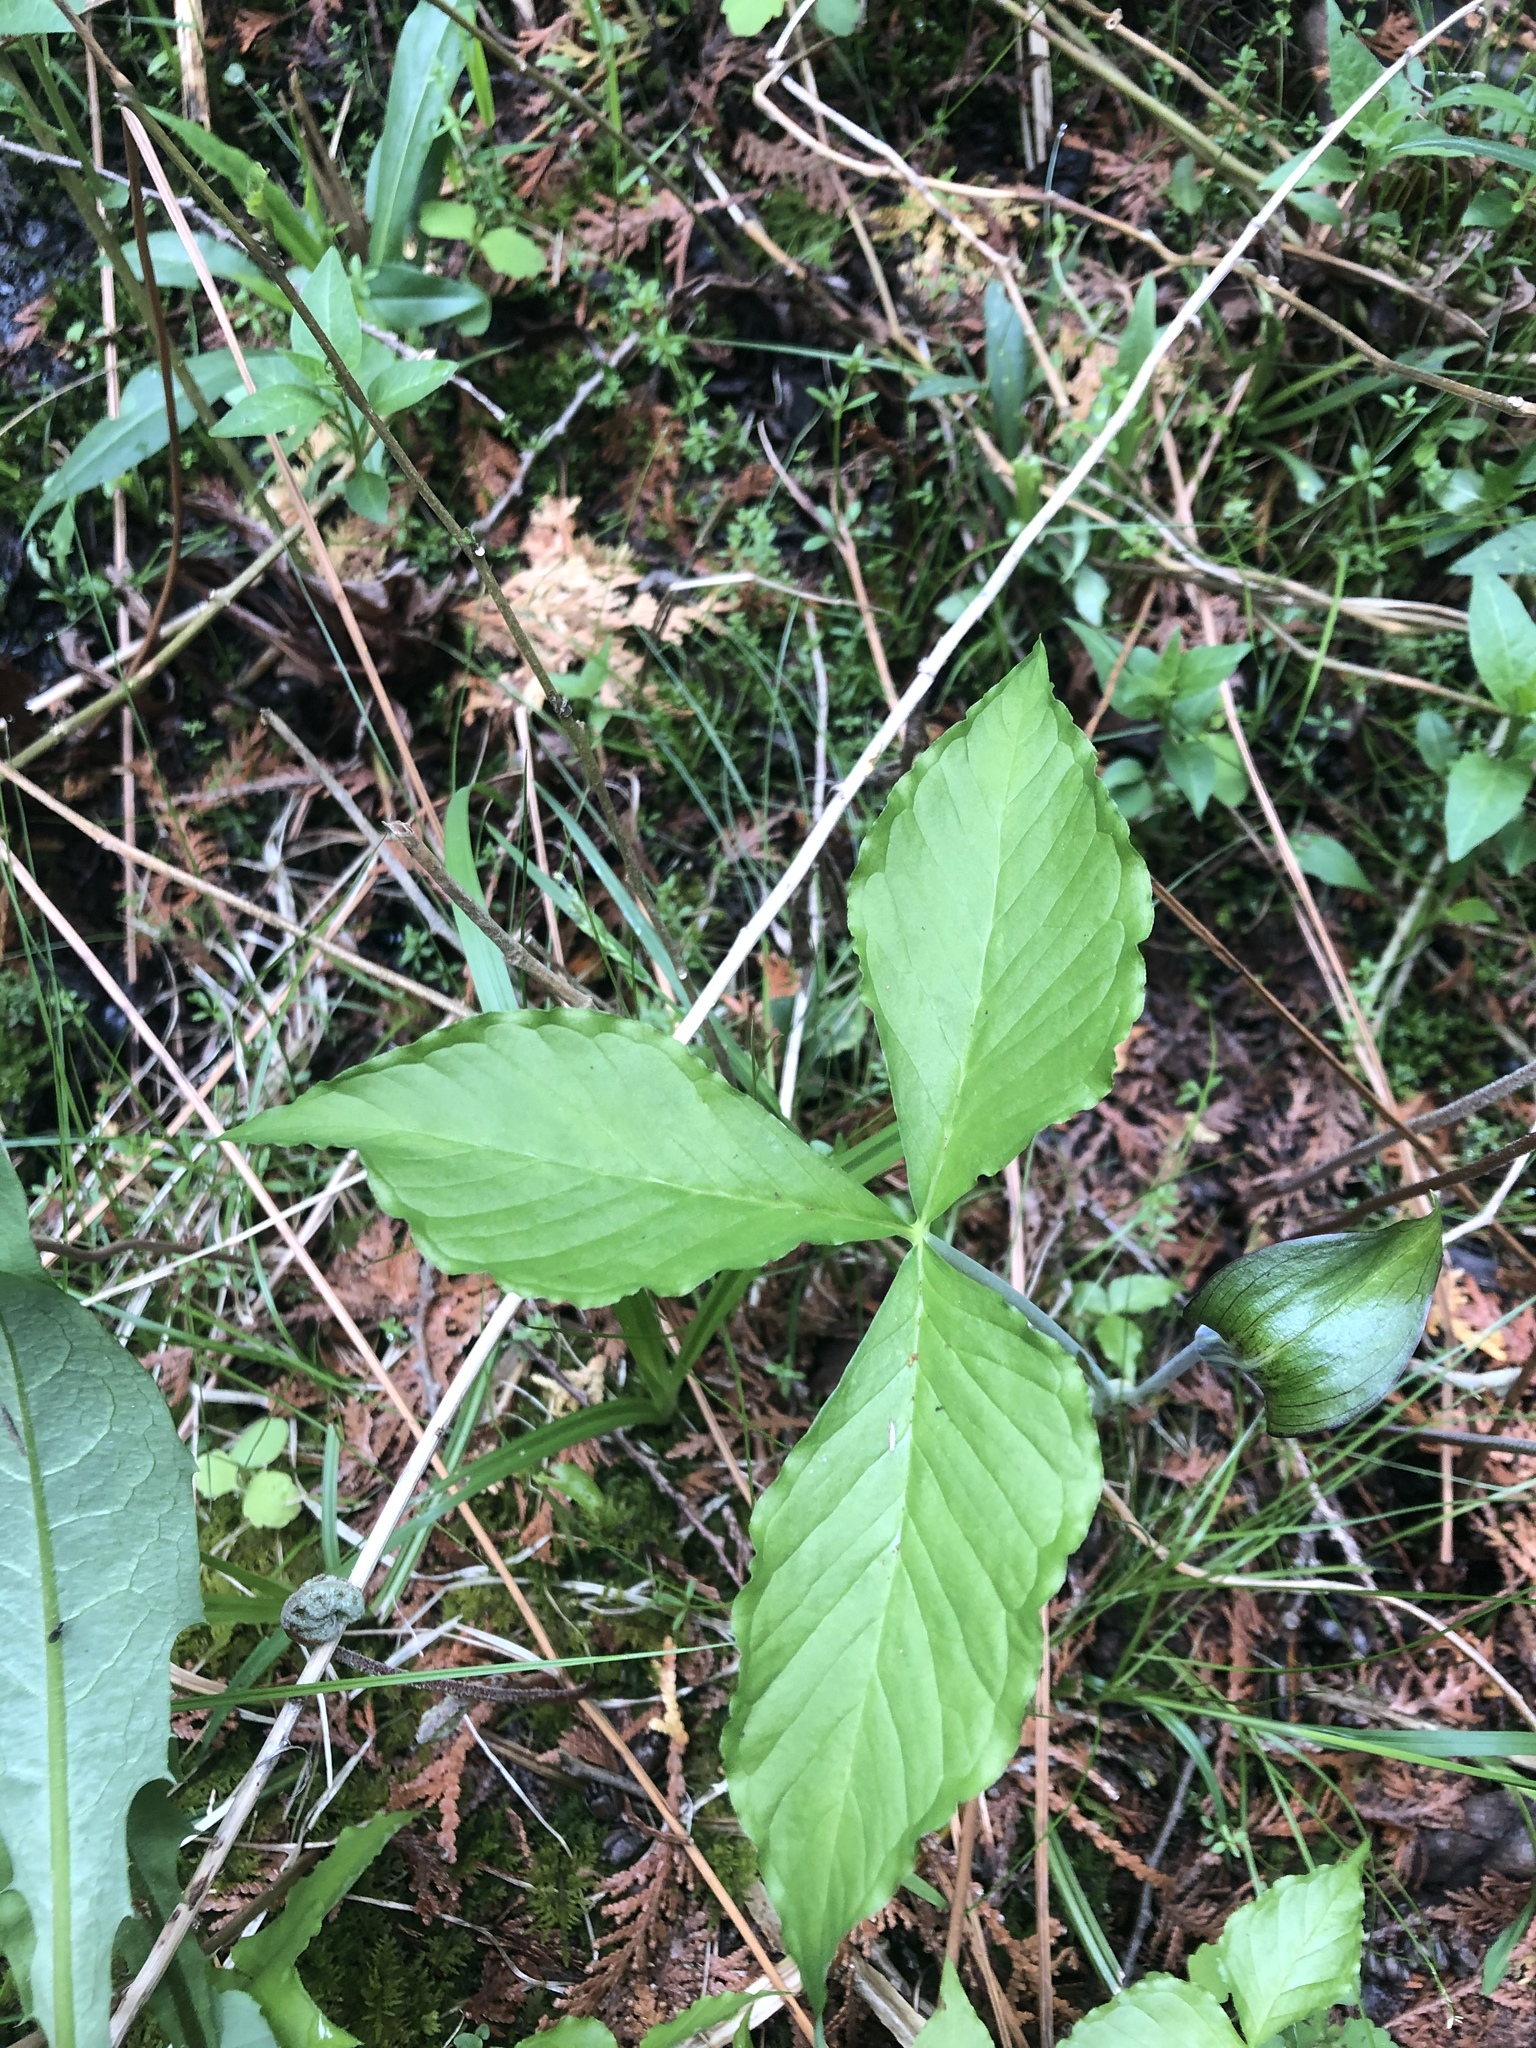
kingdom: Plantae
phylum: Tracheophyta
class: Liliopsida
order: Alismatales
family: Araceae
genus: Arisaema
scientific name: Arisaema triphyllum
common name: Jack-in-the-pulpit
